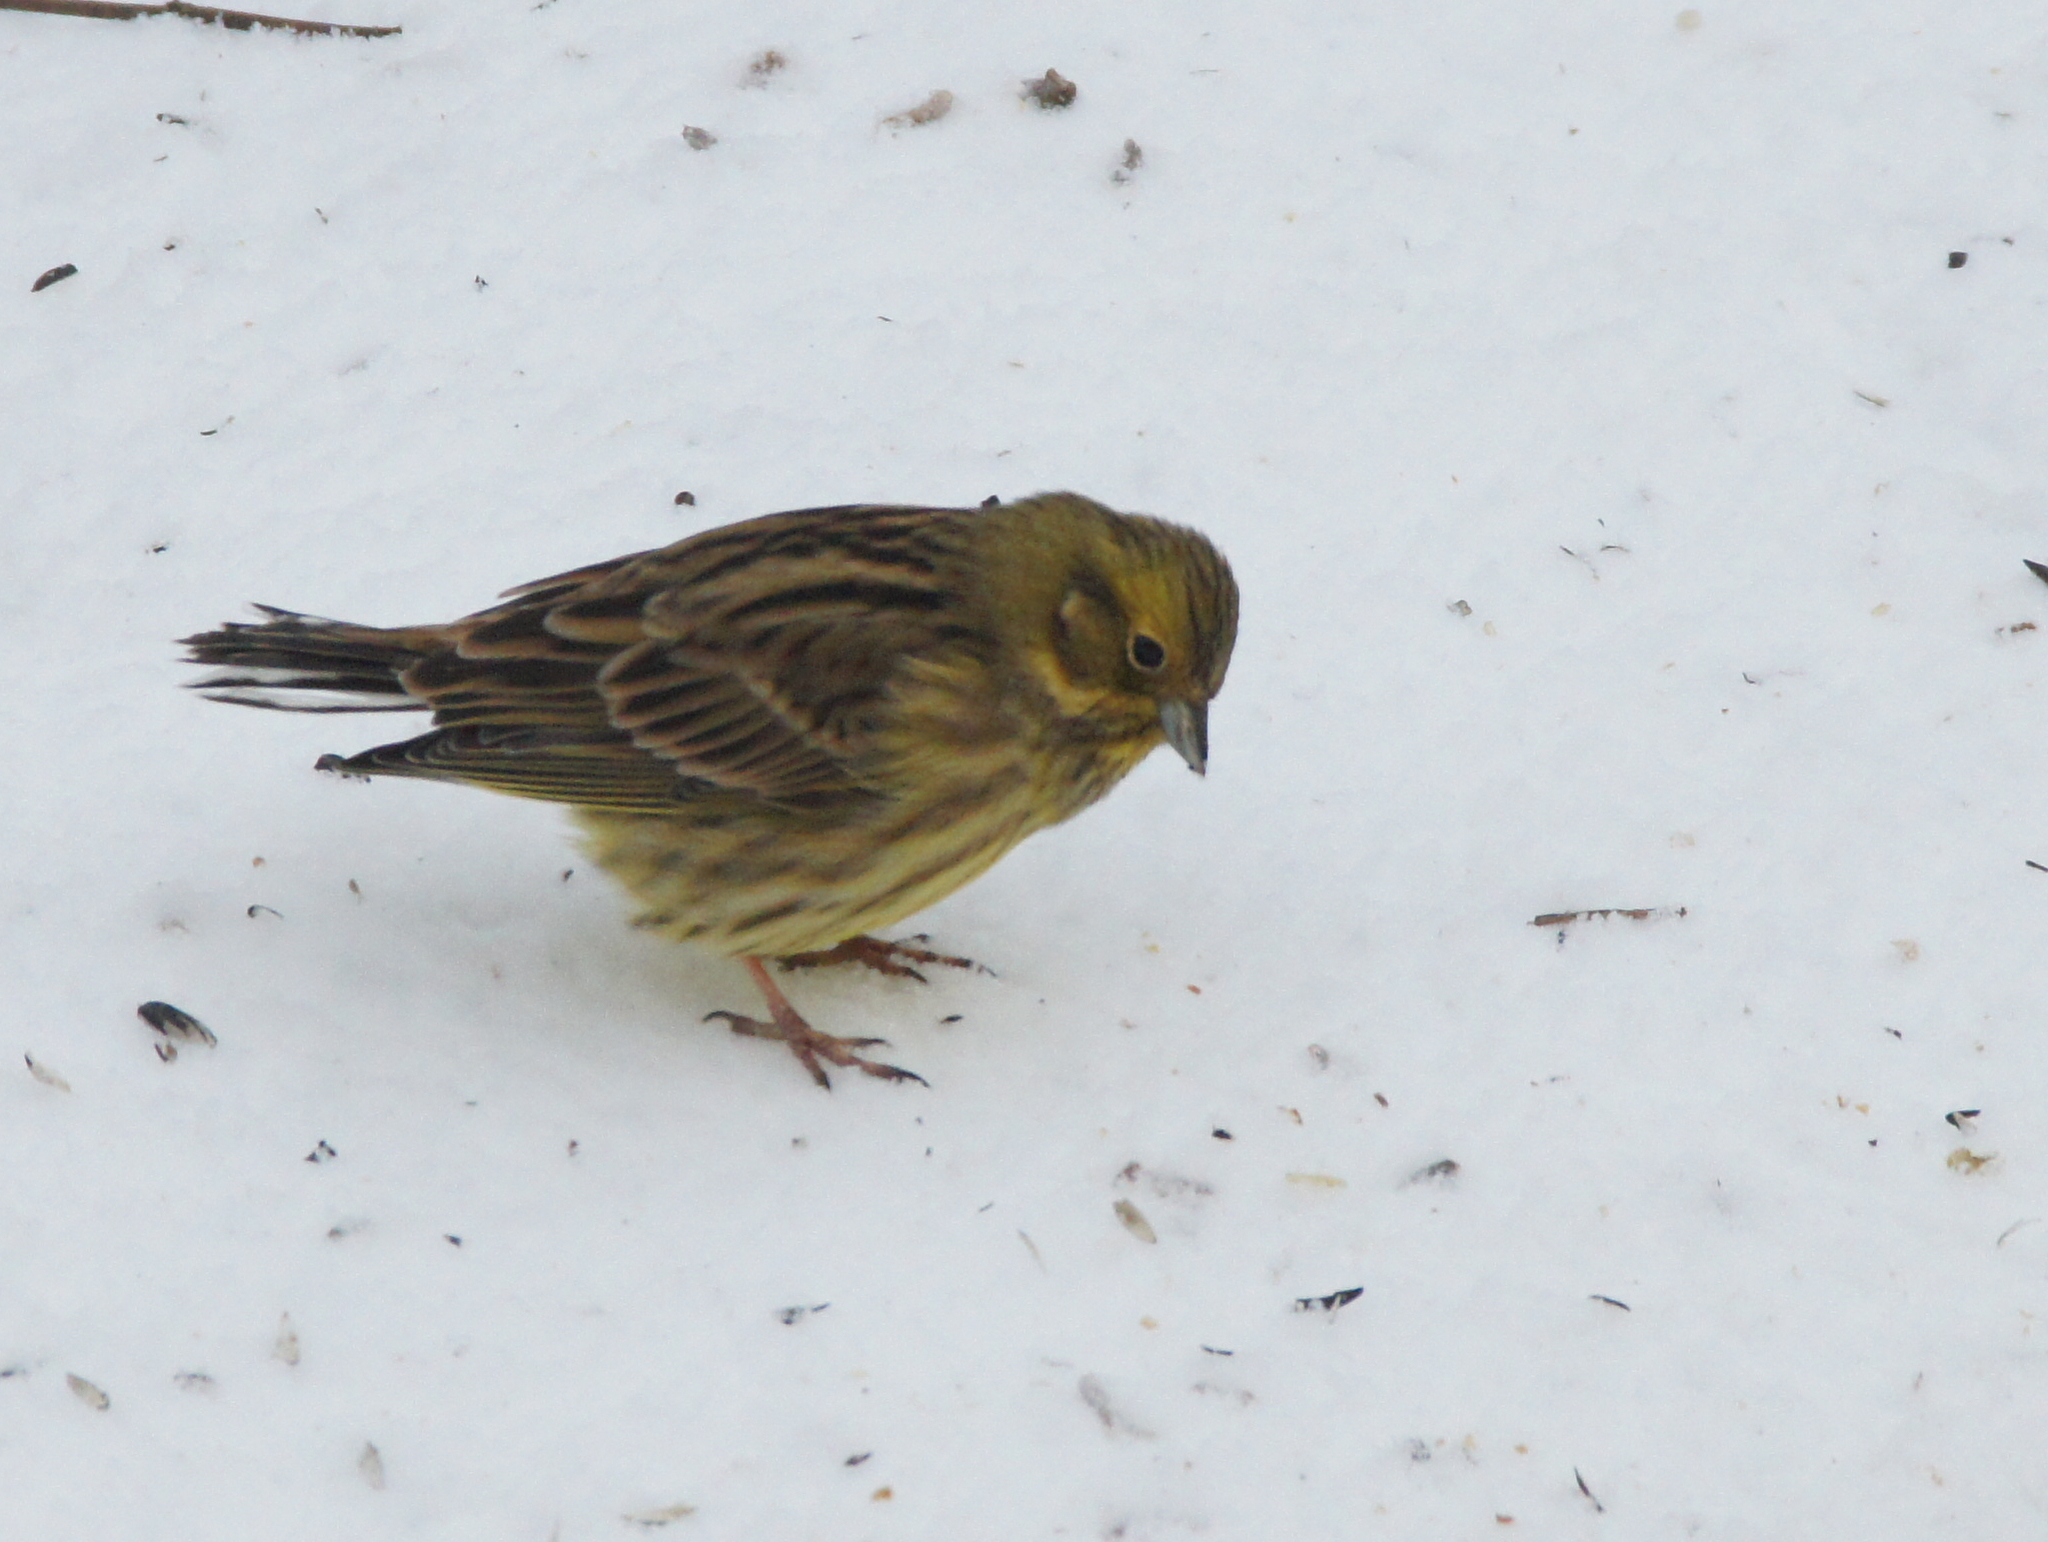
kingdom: Animalia
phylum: Chordata
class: Aves
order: Passeriformes
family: Emberizidae
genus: Emberiza
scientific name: Emberiza citrinella
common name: Yellowhammer
